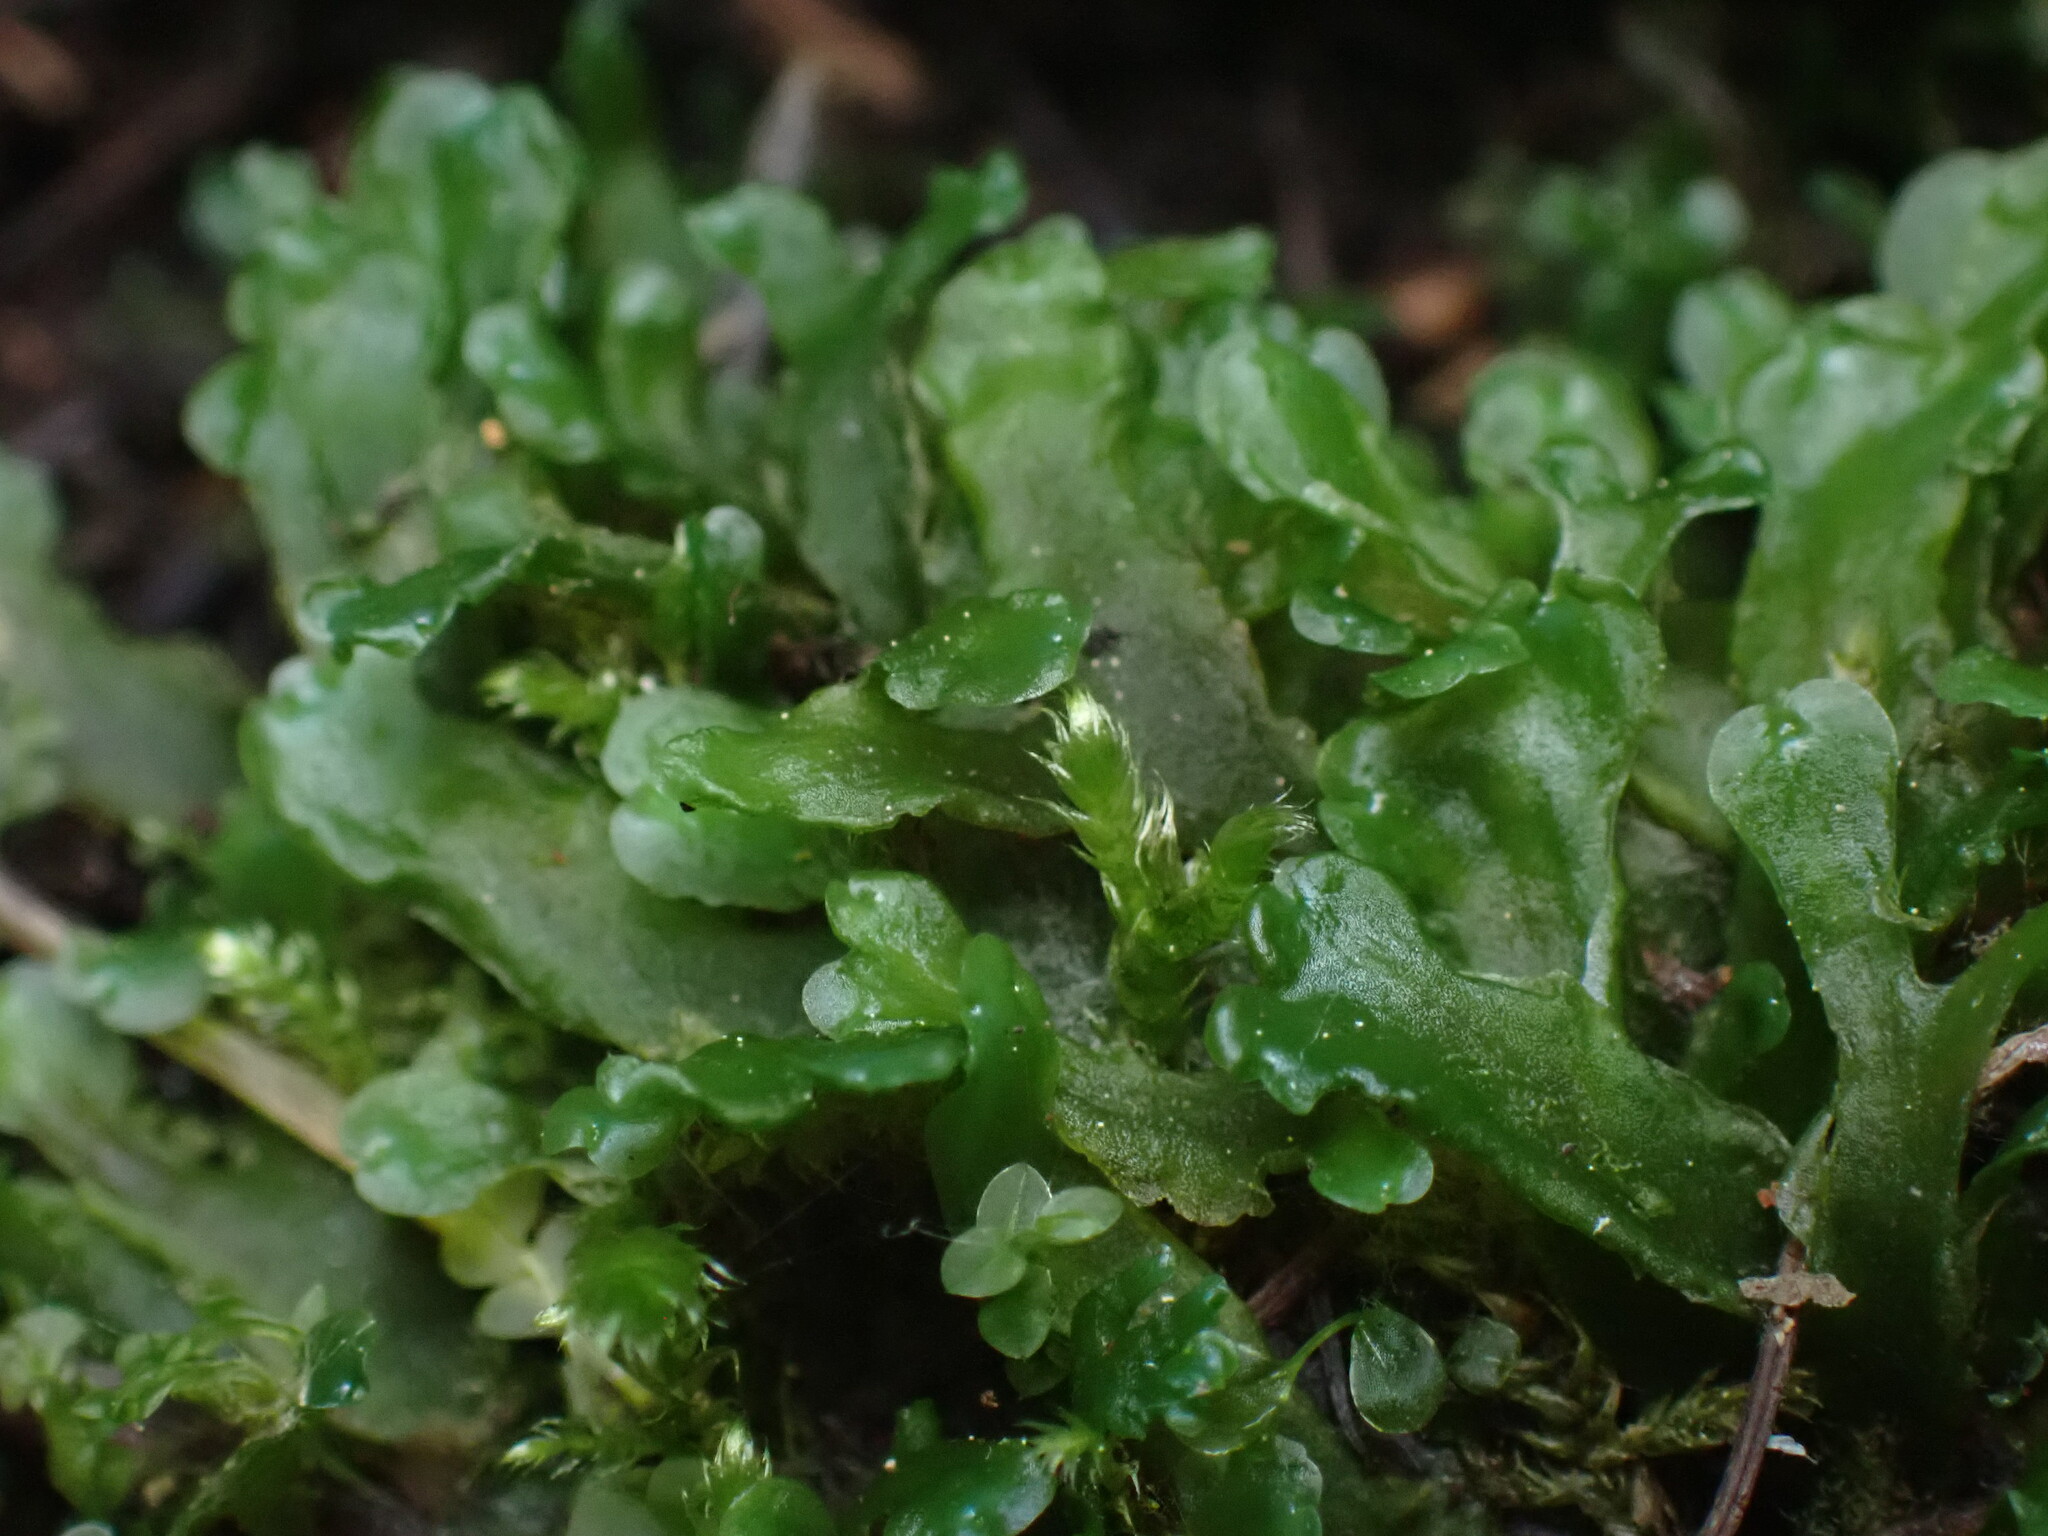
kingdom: Plantae
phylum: Marchantiophyta
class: Jungermanniopsida
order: Metzgeriales
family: Aneuraceae
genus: Aneura
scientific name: Aneura pinguis
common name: Common greasewort
